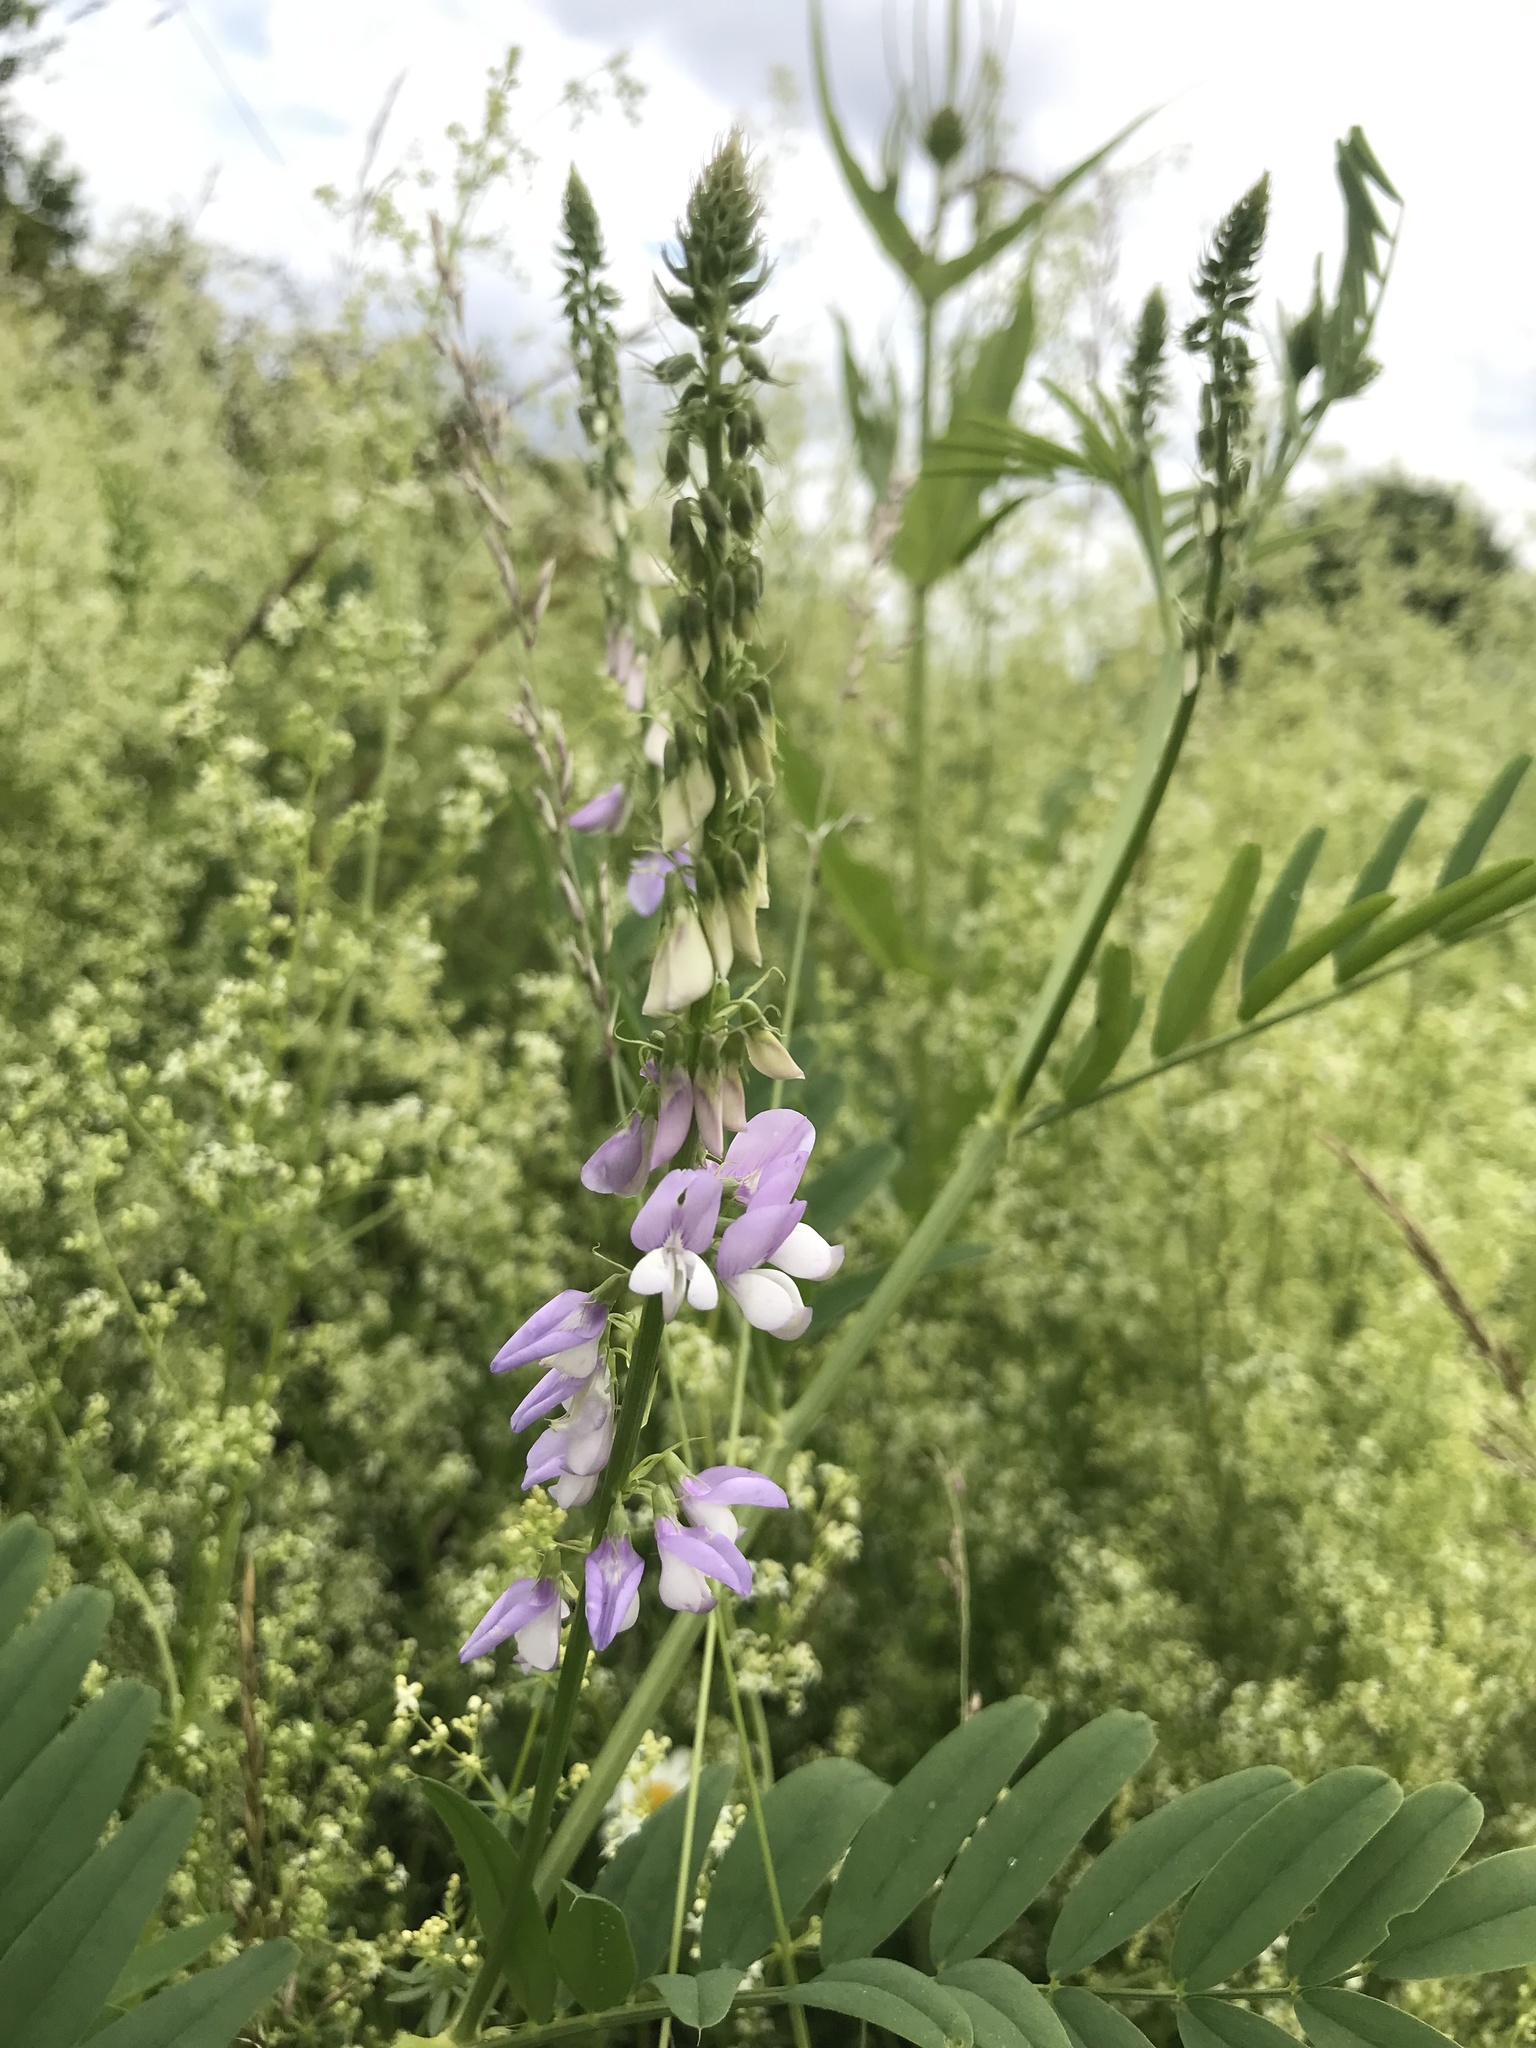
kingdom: Plantae
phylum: Tracheophyta
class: Magnoliopsida
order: Fabales
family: Fabaceae
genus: Galega
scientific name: Galega officinalis
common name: Goat's-rue
